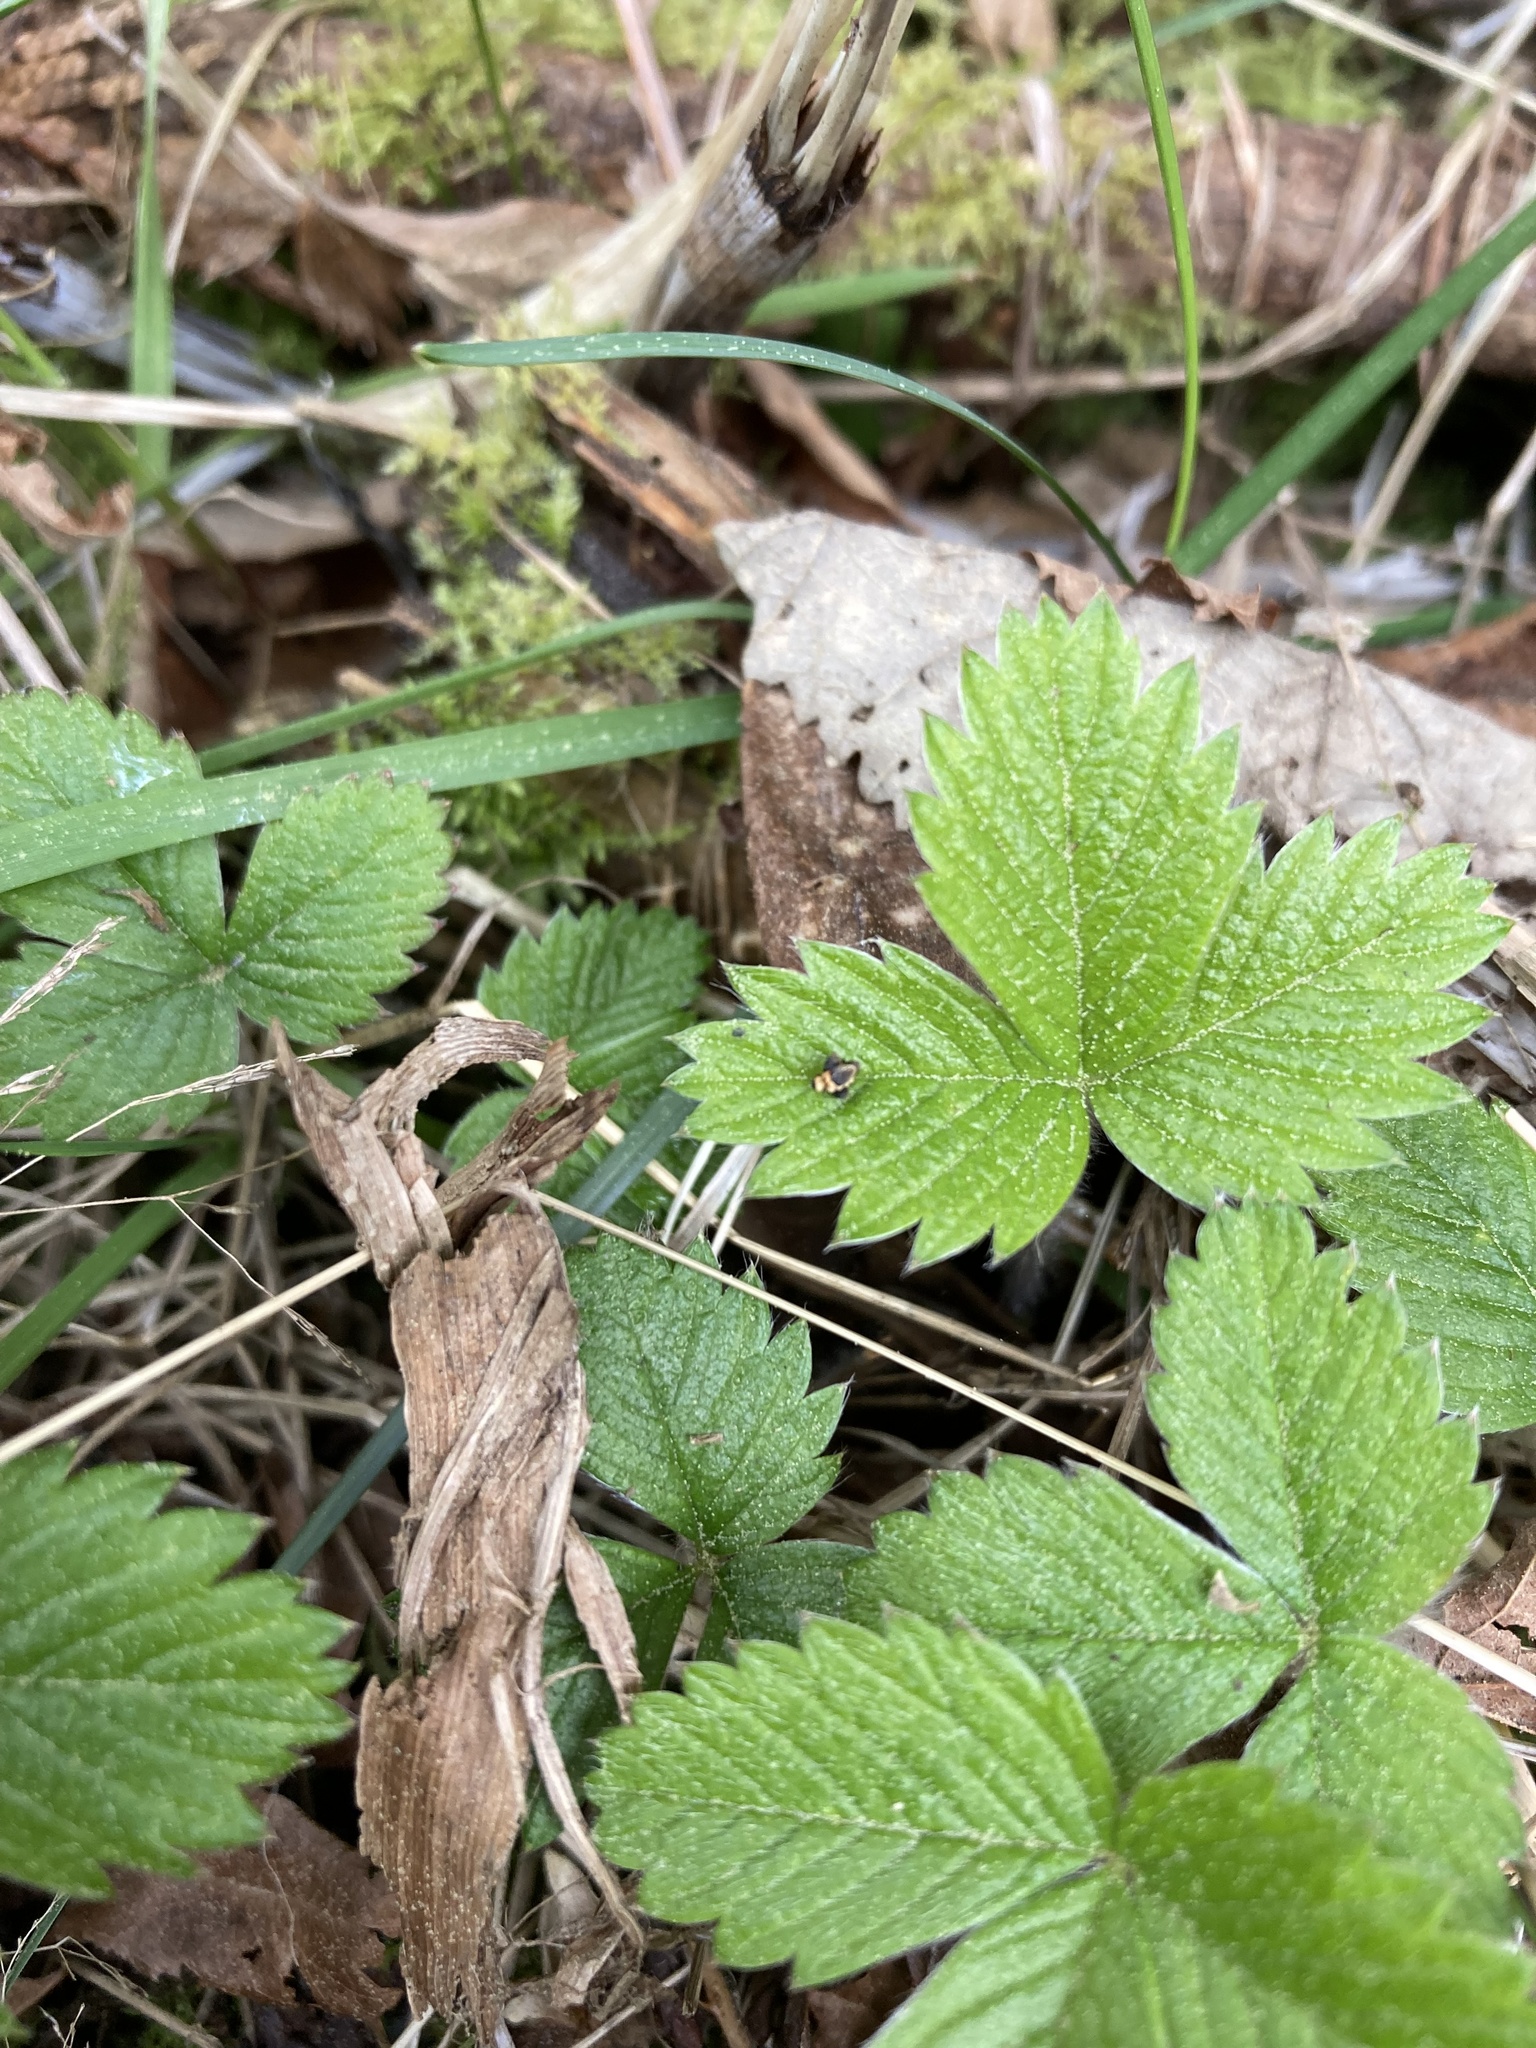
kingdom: Plantae
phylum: Tracheophyta
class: Magnoliopsida
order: Rosales
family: Rosaceae
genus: Fragaria
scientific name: Fragaria vesca
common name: Wild strawberry
